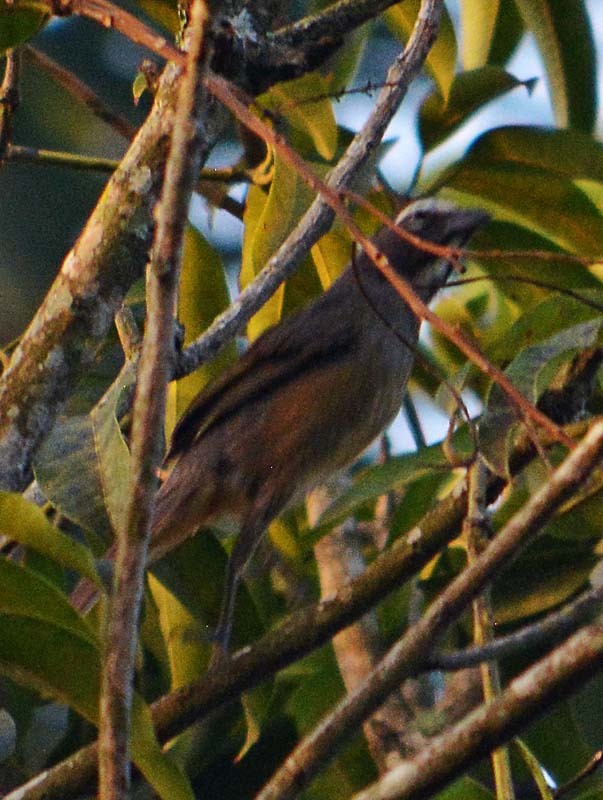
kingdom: Animalia
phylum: Chordata
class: Aves
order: Passeriformes
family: Thraupidae
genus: Saltator
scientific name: Saltator grandis
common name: Cinnamon-bellied saltator
